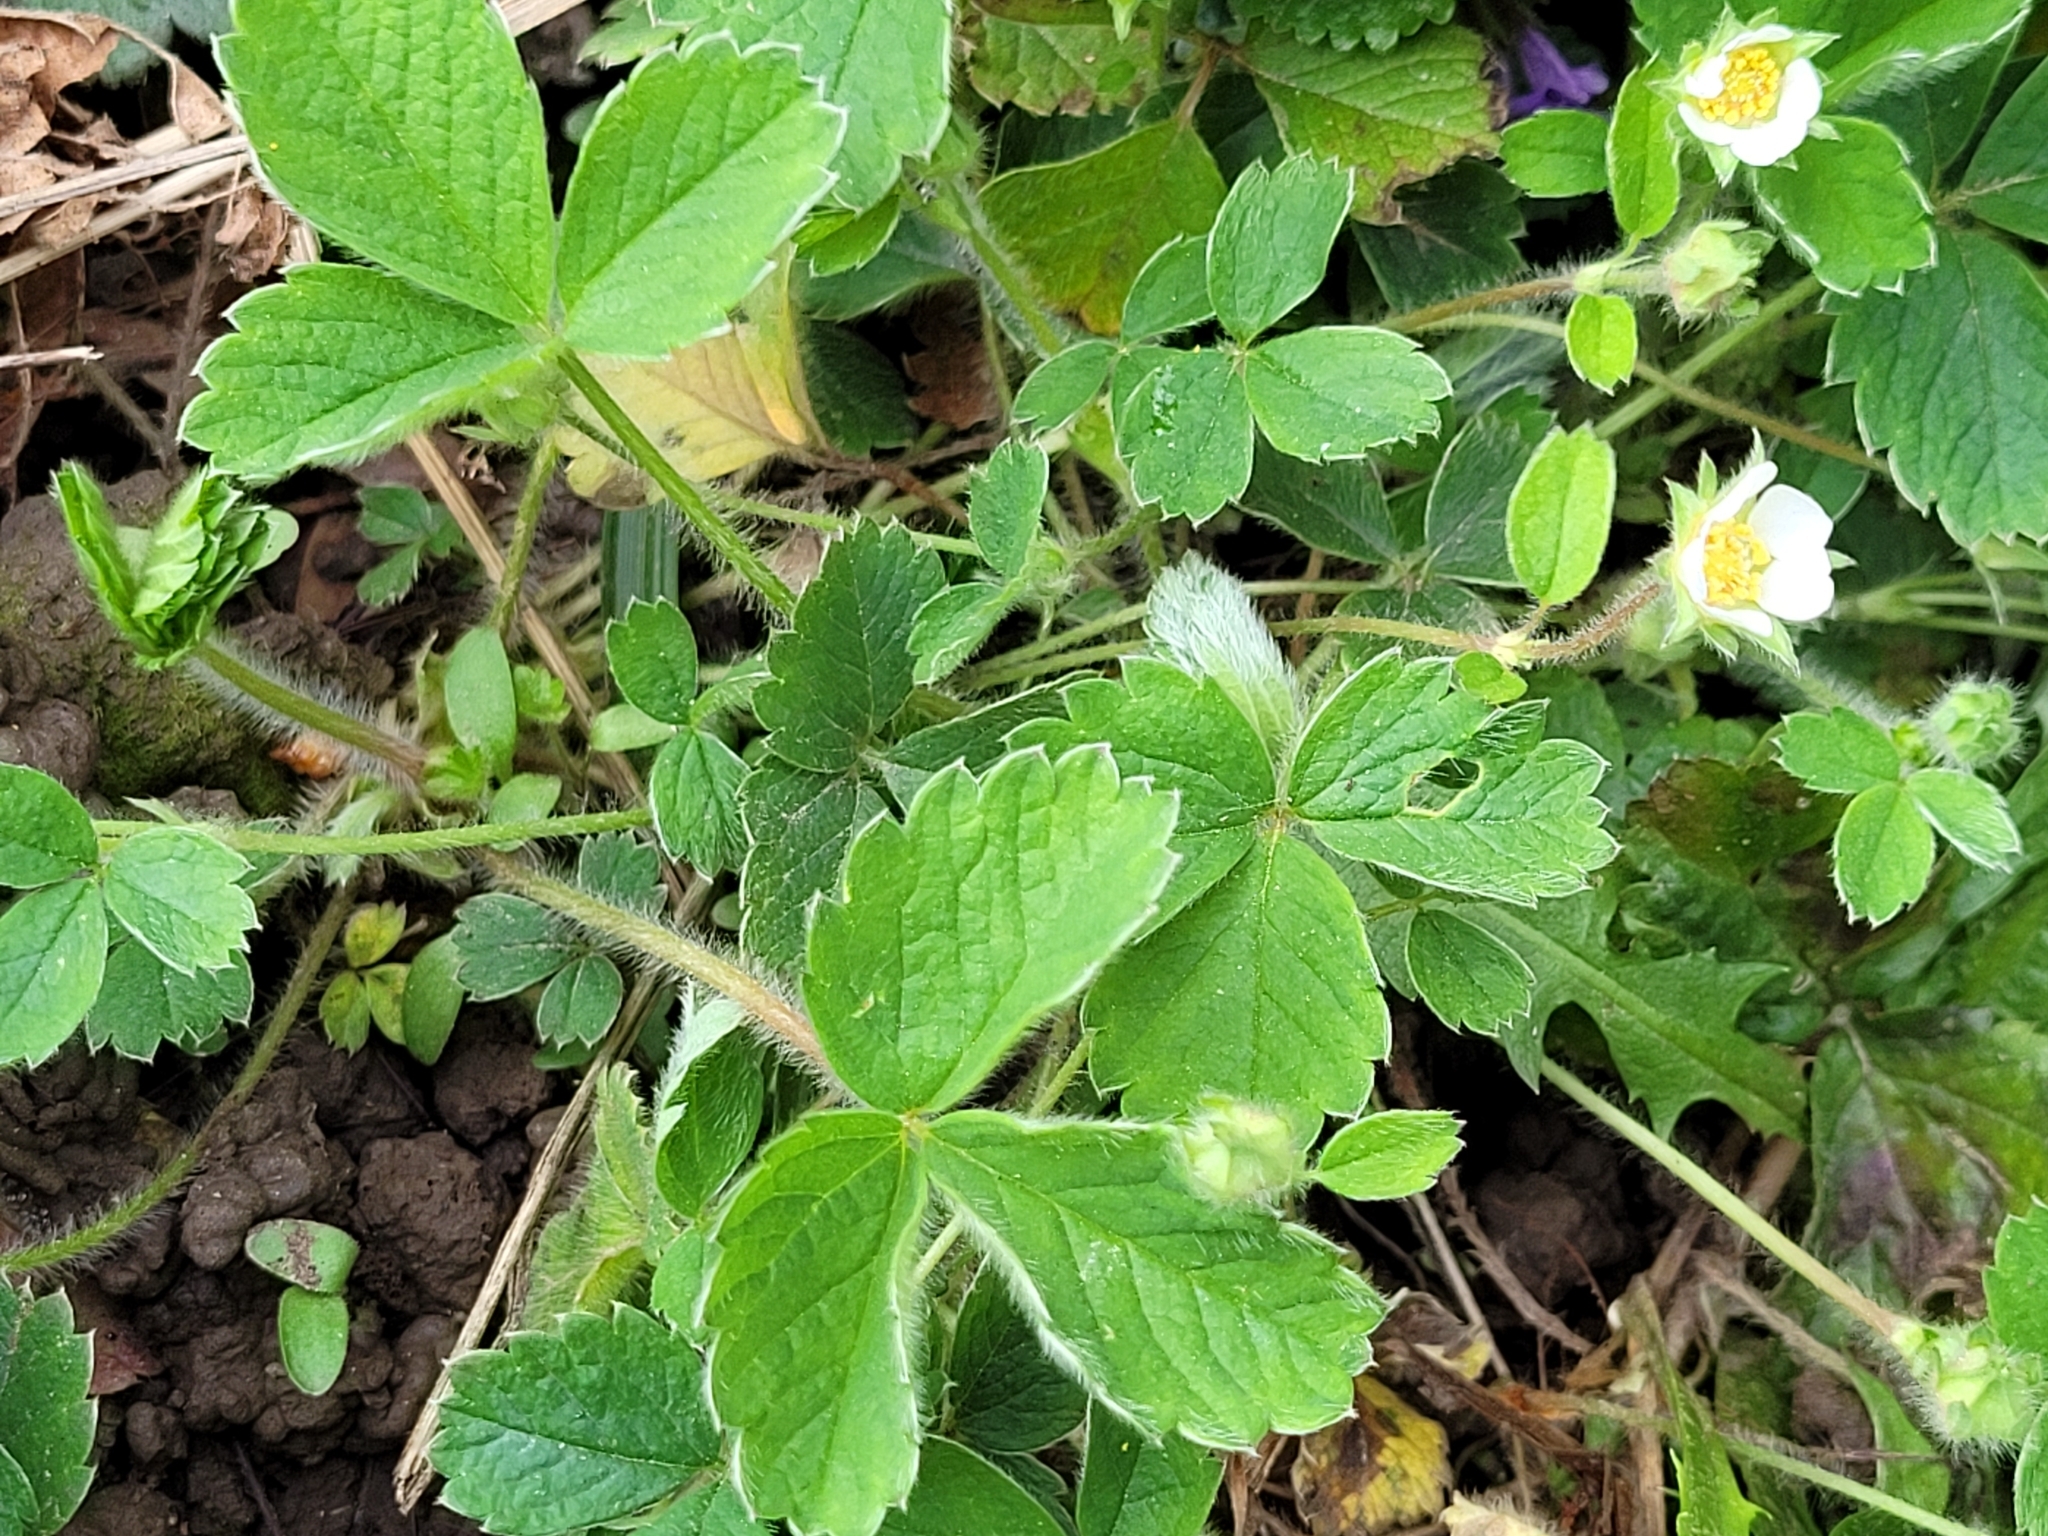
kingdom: Plantae
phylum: Tracheophyta
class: Magnoliopsida
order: Rosales
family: Rosaceae
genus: Potentilla
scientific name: Potentilla sterilis
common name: Barren strawberry
